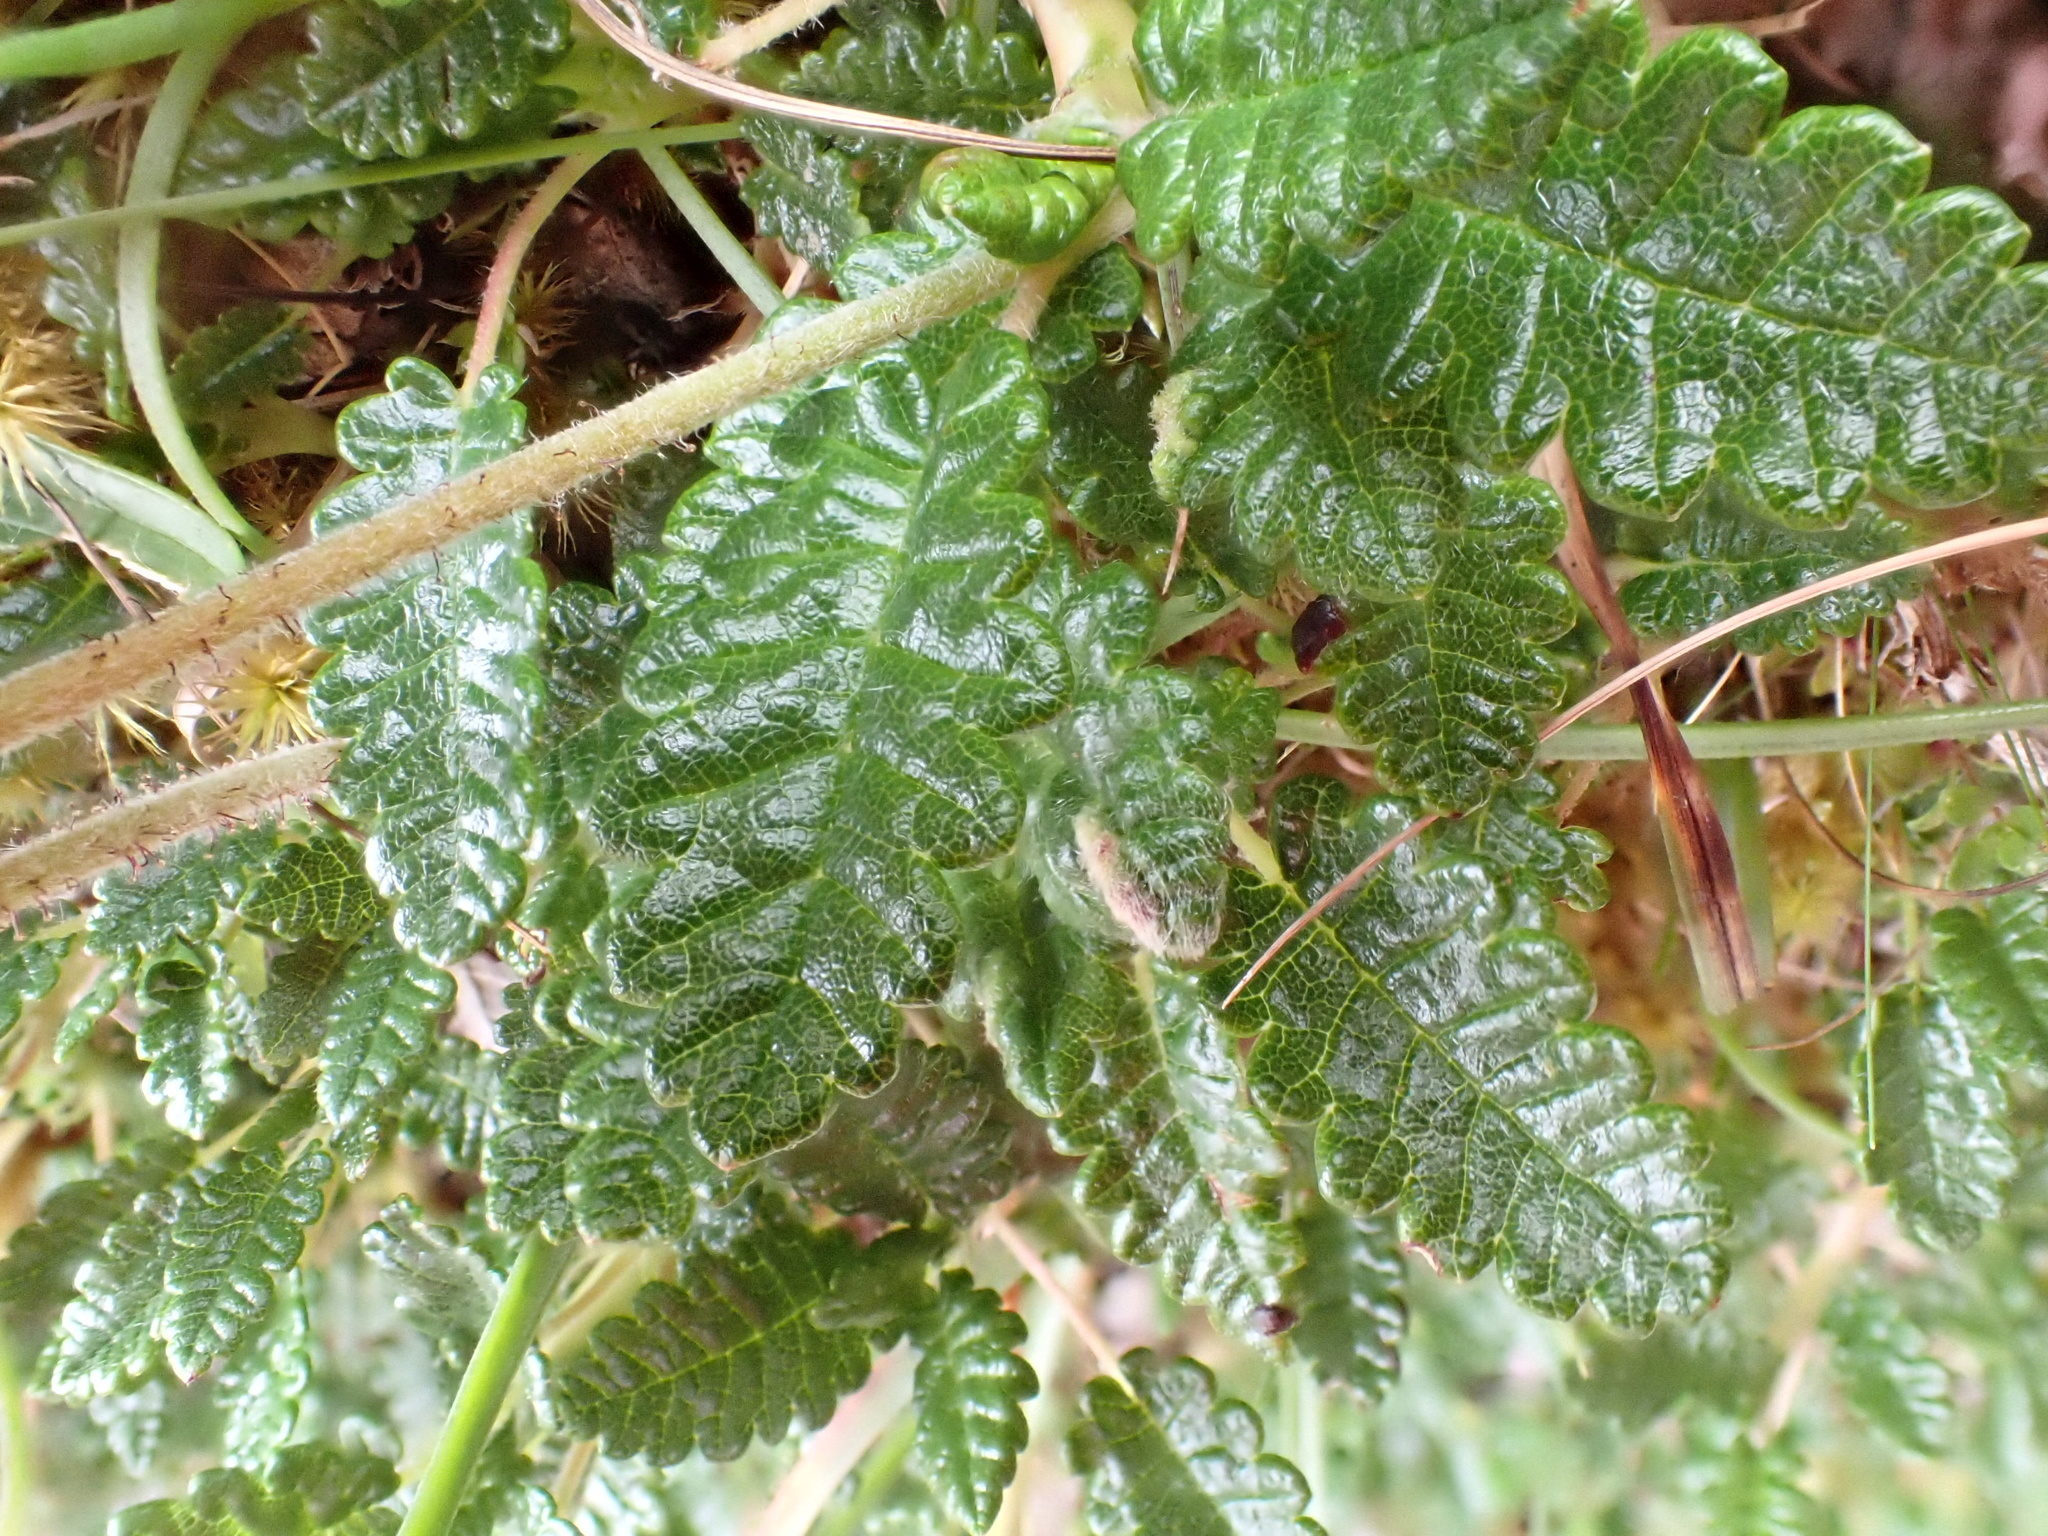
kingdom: Plantae
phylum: Tracheophyta
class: Magnoliopsida
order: Rosales
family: Rosaceae
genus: Dryas
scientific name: Dryas octopetala
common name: Eight-petal mountain-avens
